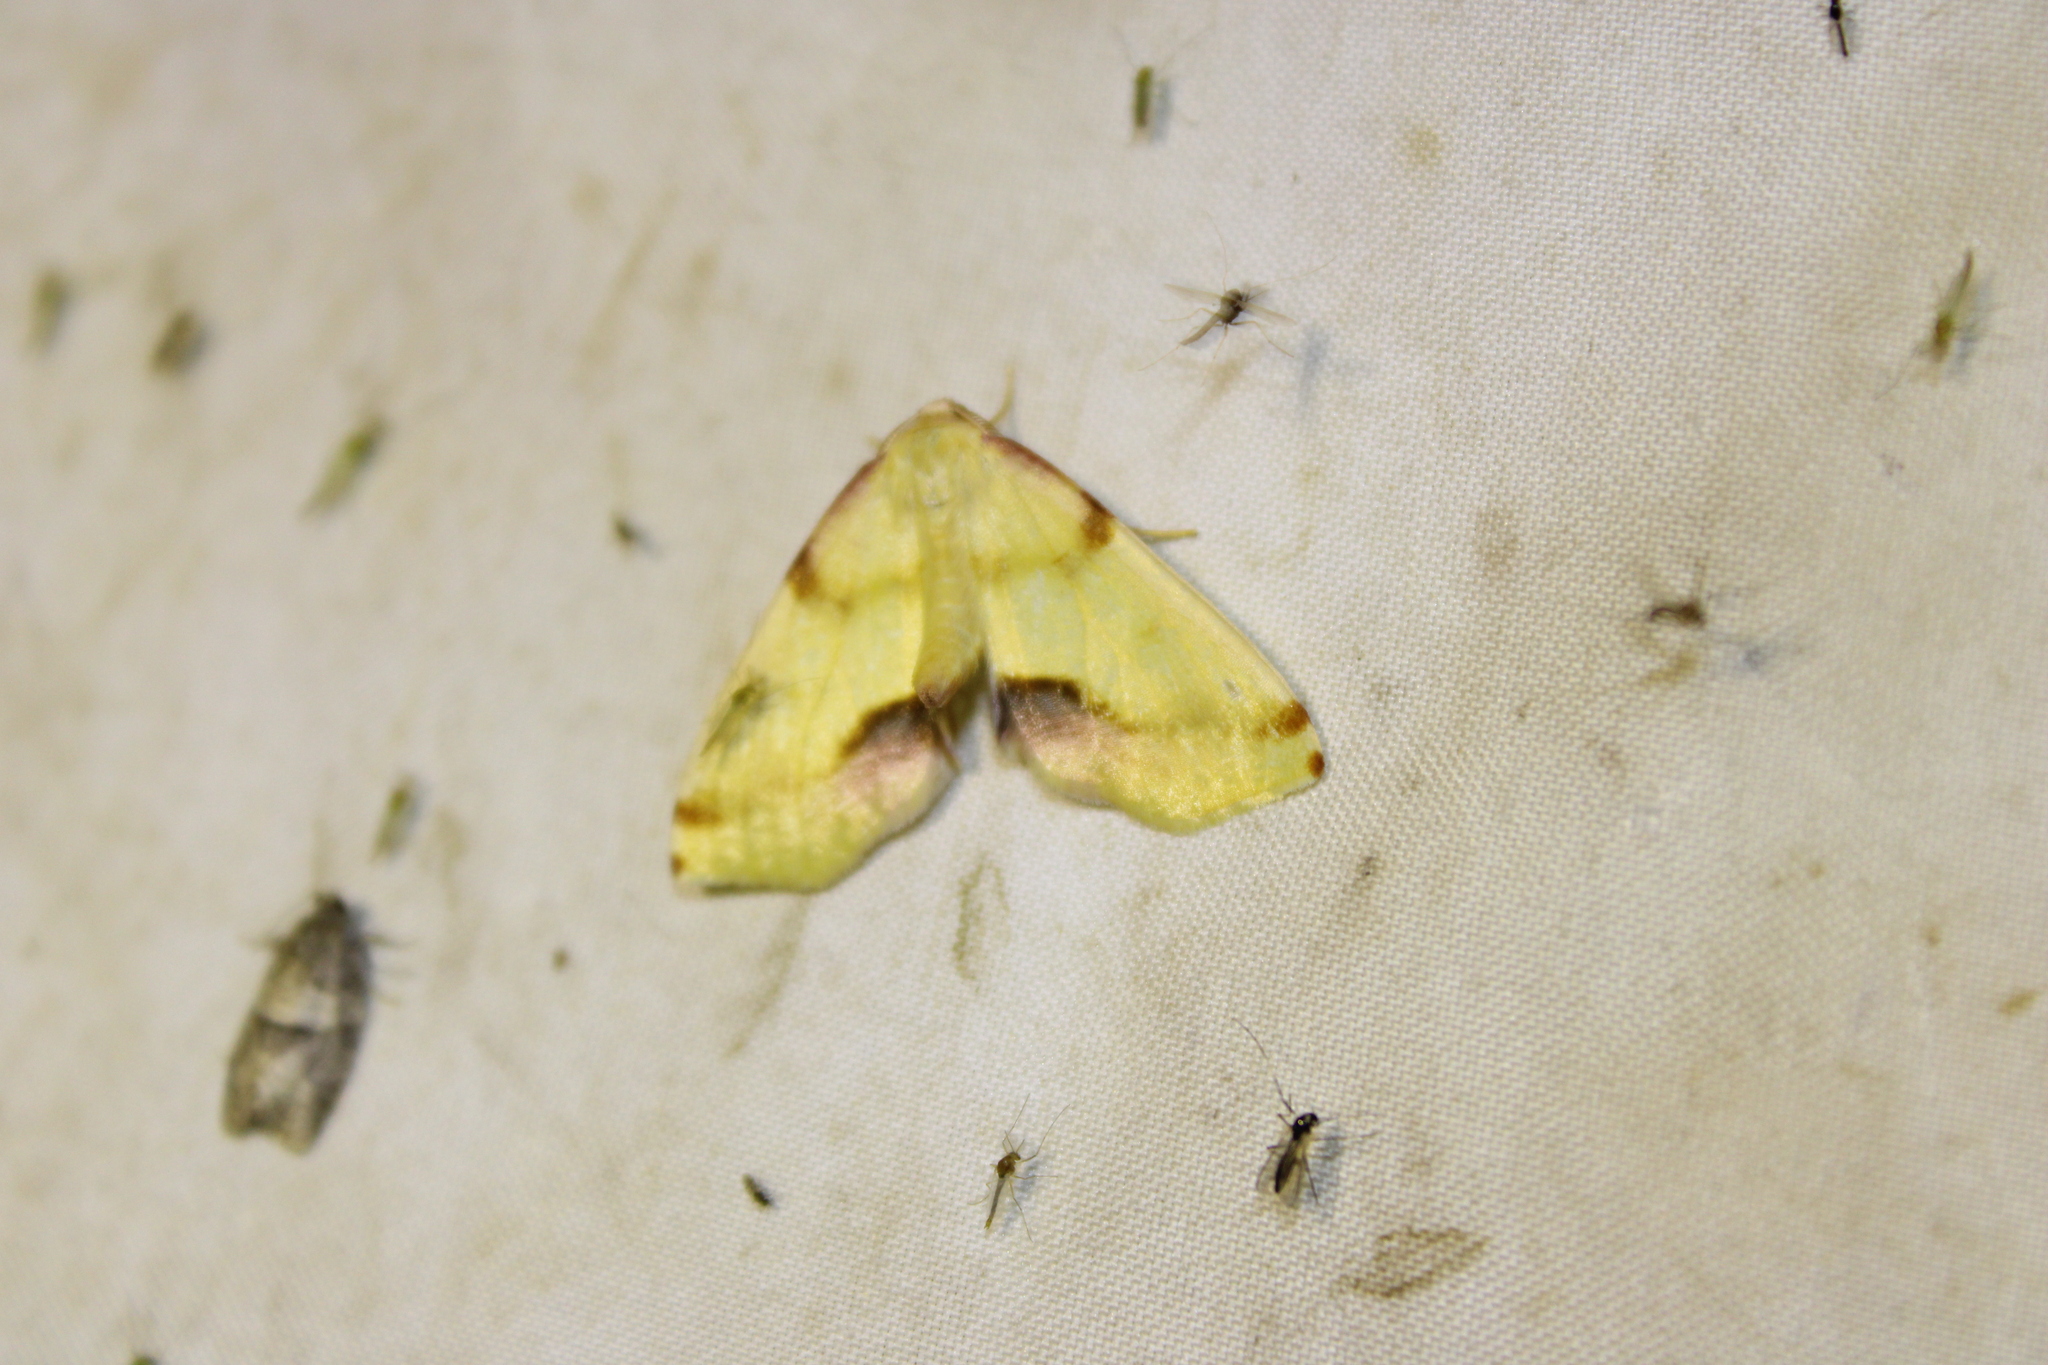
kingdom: Animalia
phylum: Arthropoda
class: Insecta
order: Lepidoptera
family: Geometridae
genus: Plagodis
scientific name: Plagodis serinaria
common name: Lemon plagodis
